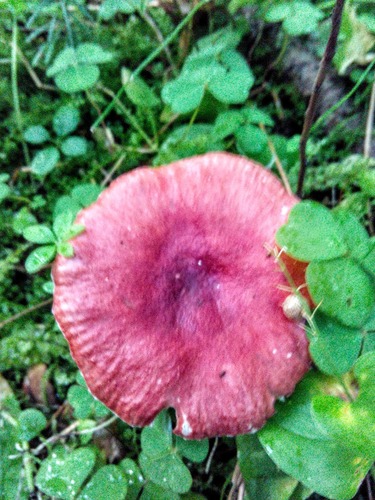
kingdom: Fungi
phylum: Basidiomycota
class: Agaricomycetes
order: Russulales
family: Russulaceae
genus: Russula
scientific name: Russula sanguinea
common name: Bloody brittlegill
